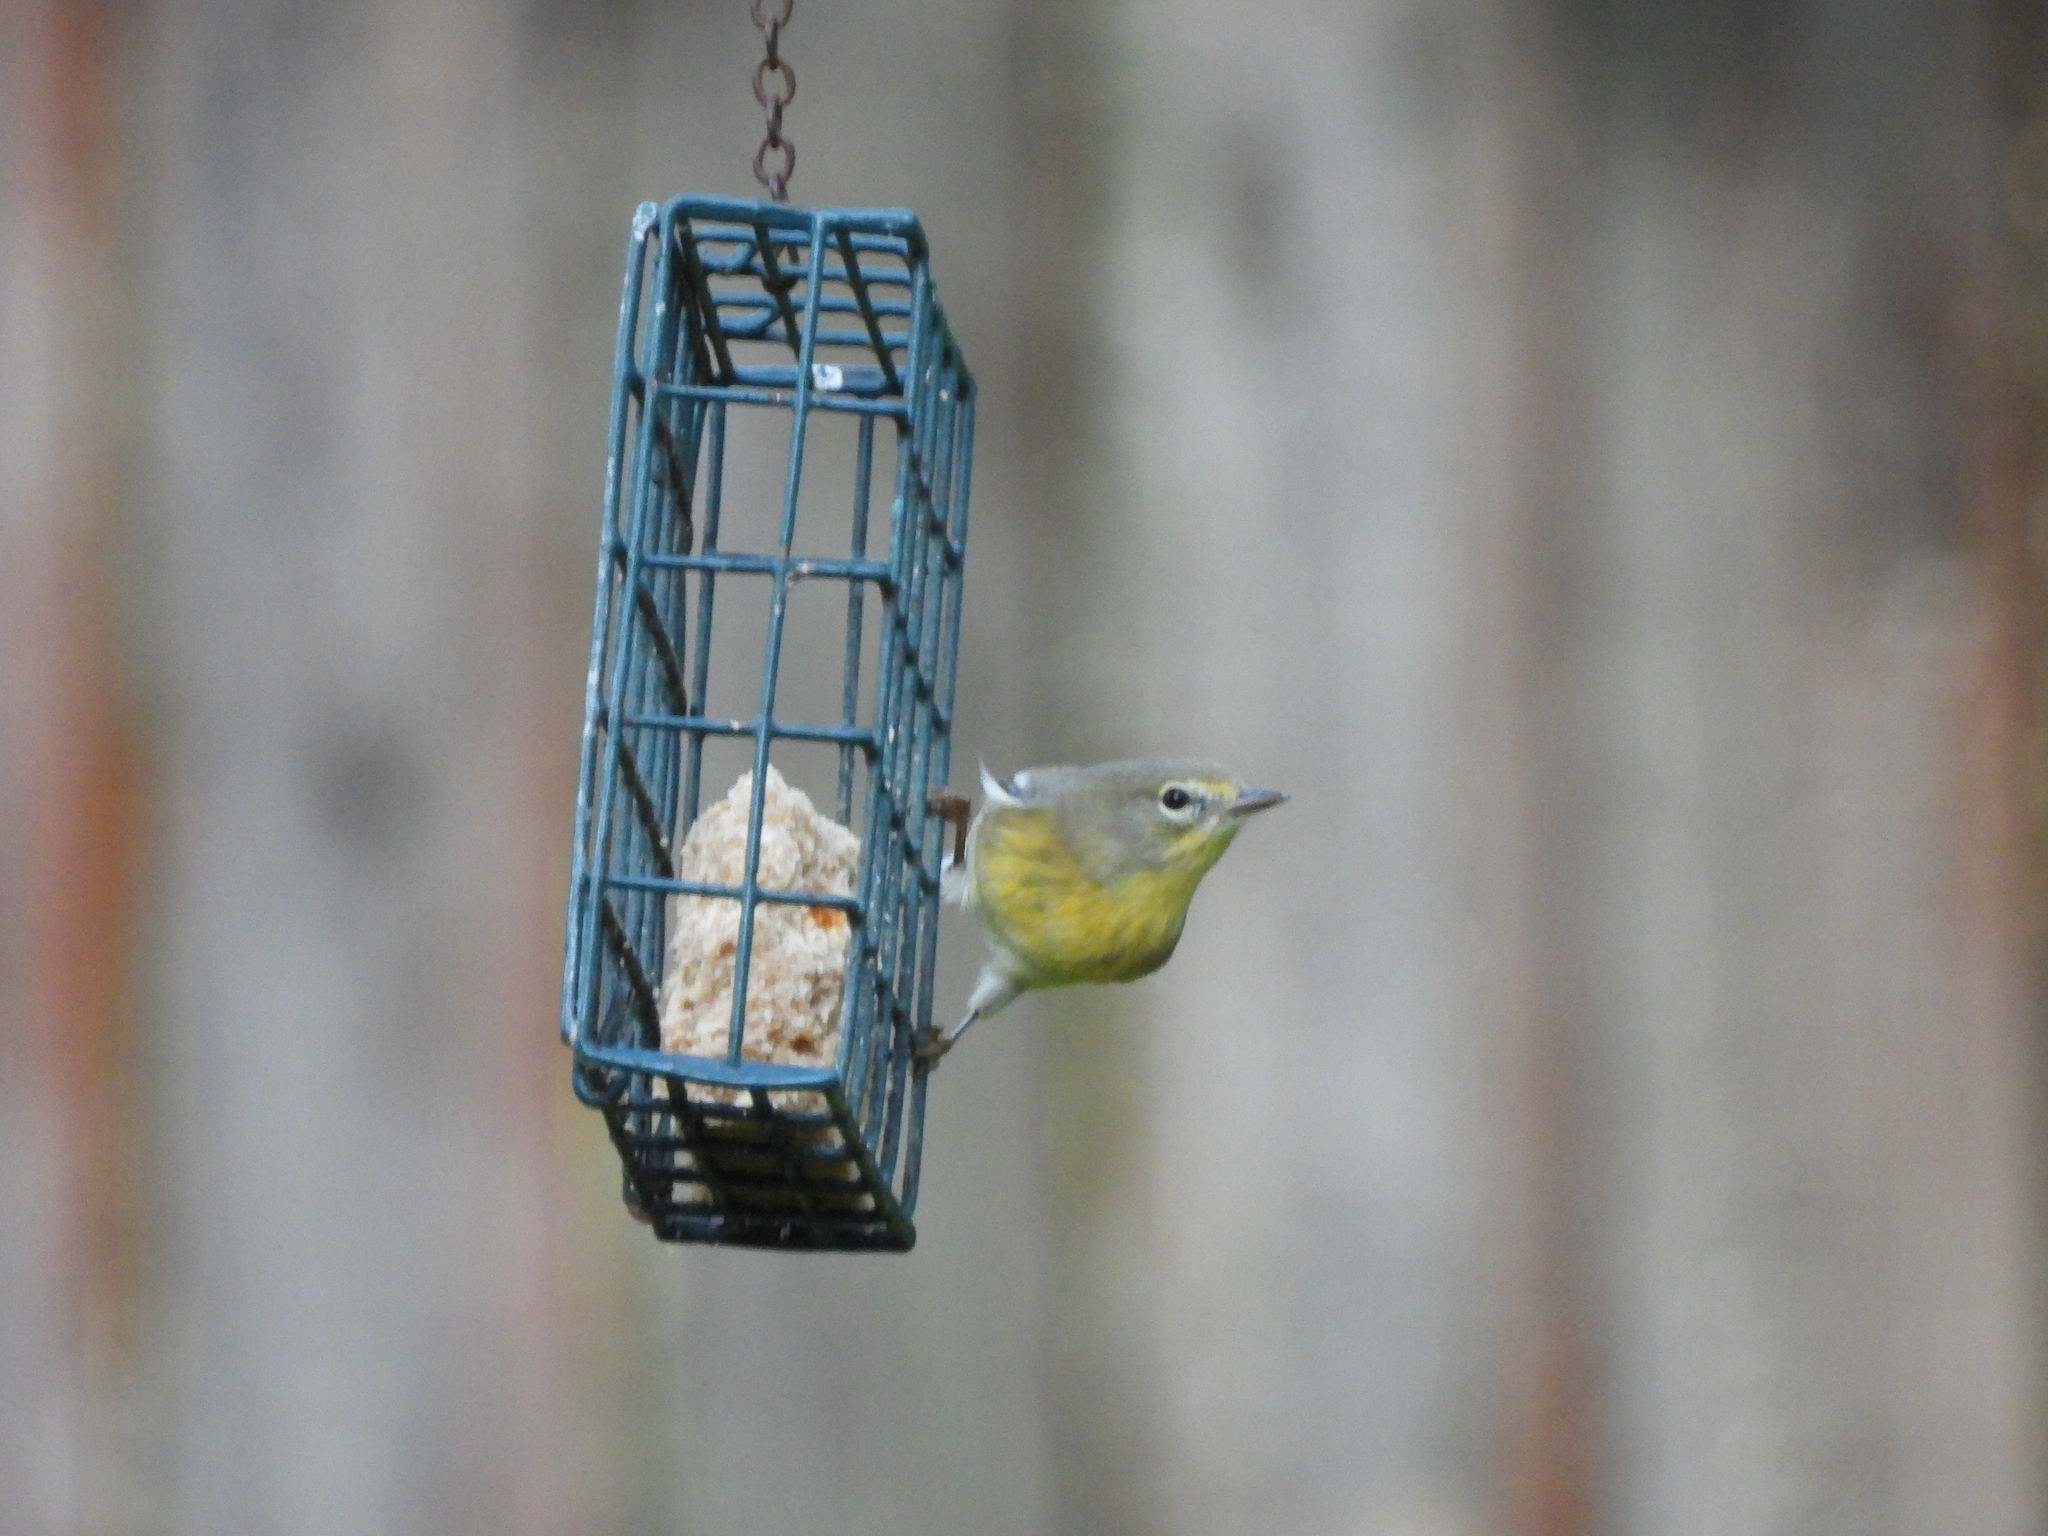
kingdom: Animalia
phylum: Chordata
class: Aves
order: Passeriformes
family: Parulidae
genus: Setophaga
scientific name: Setophaga pinus
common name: Pine warbler
